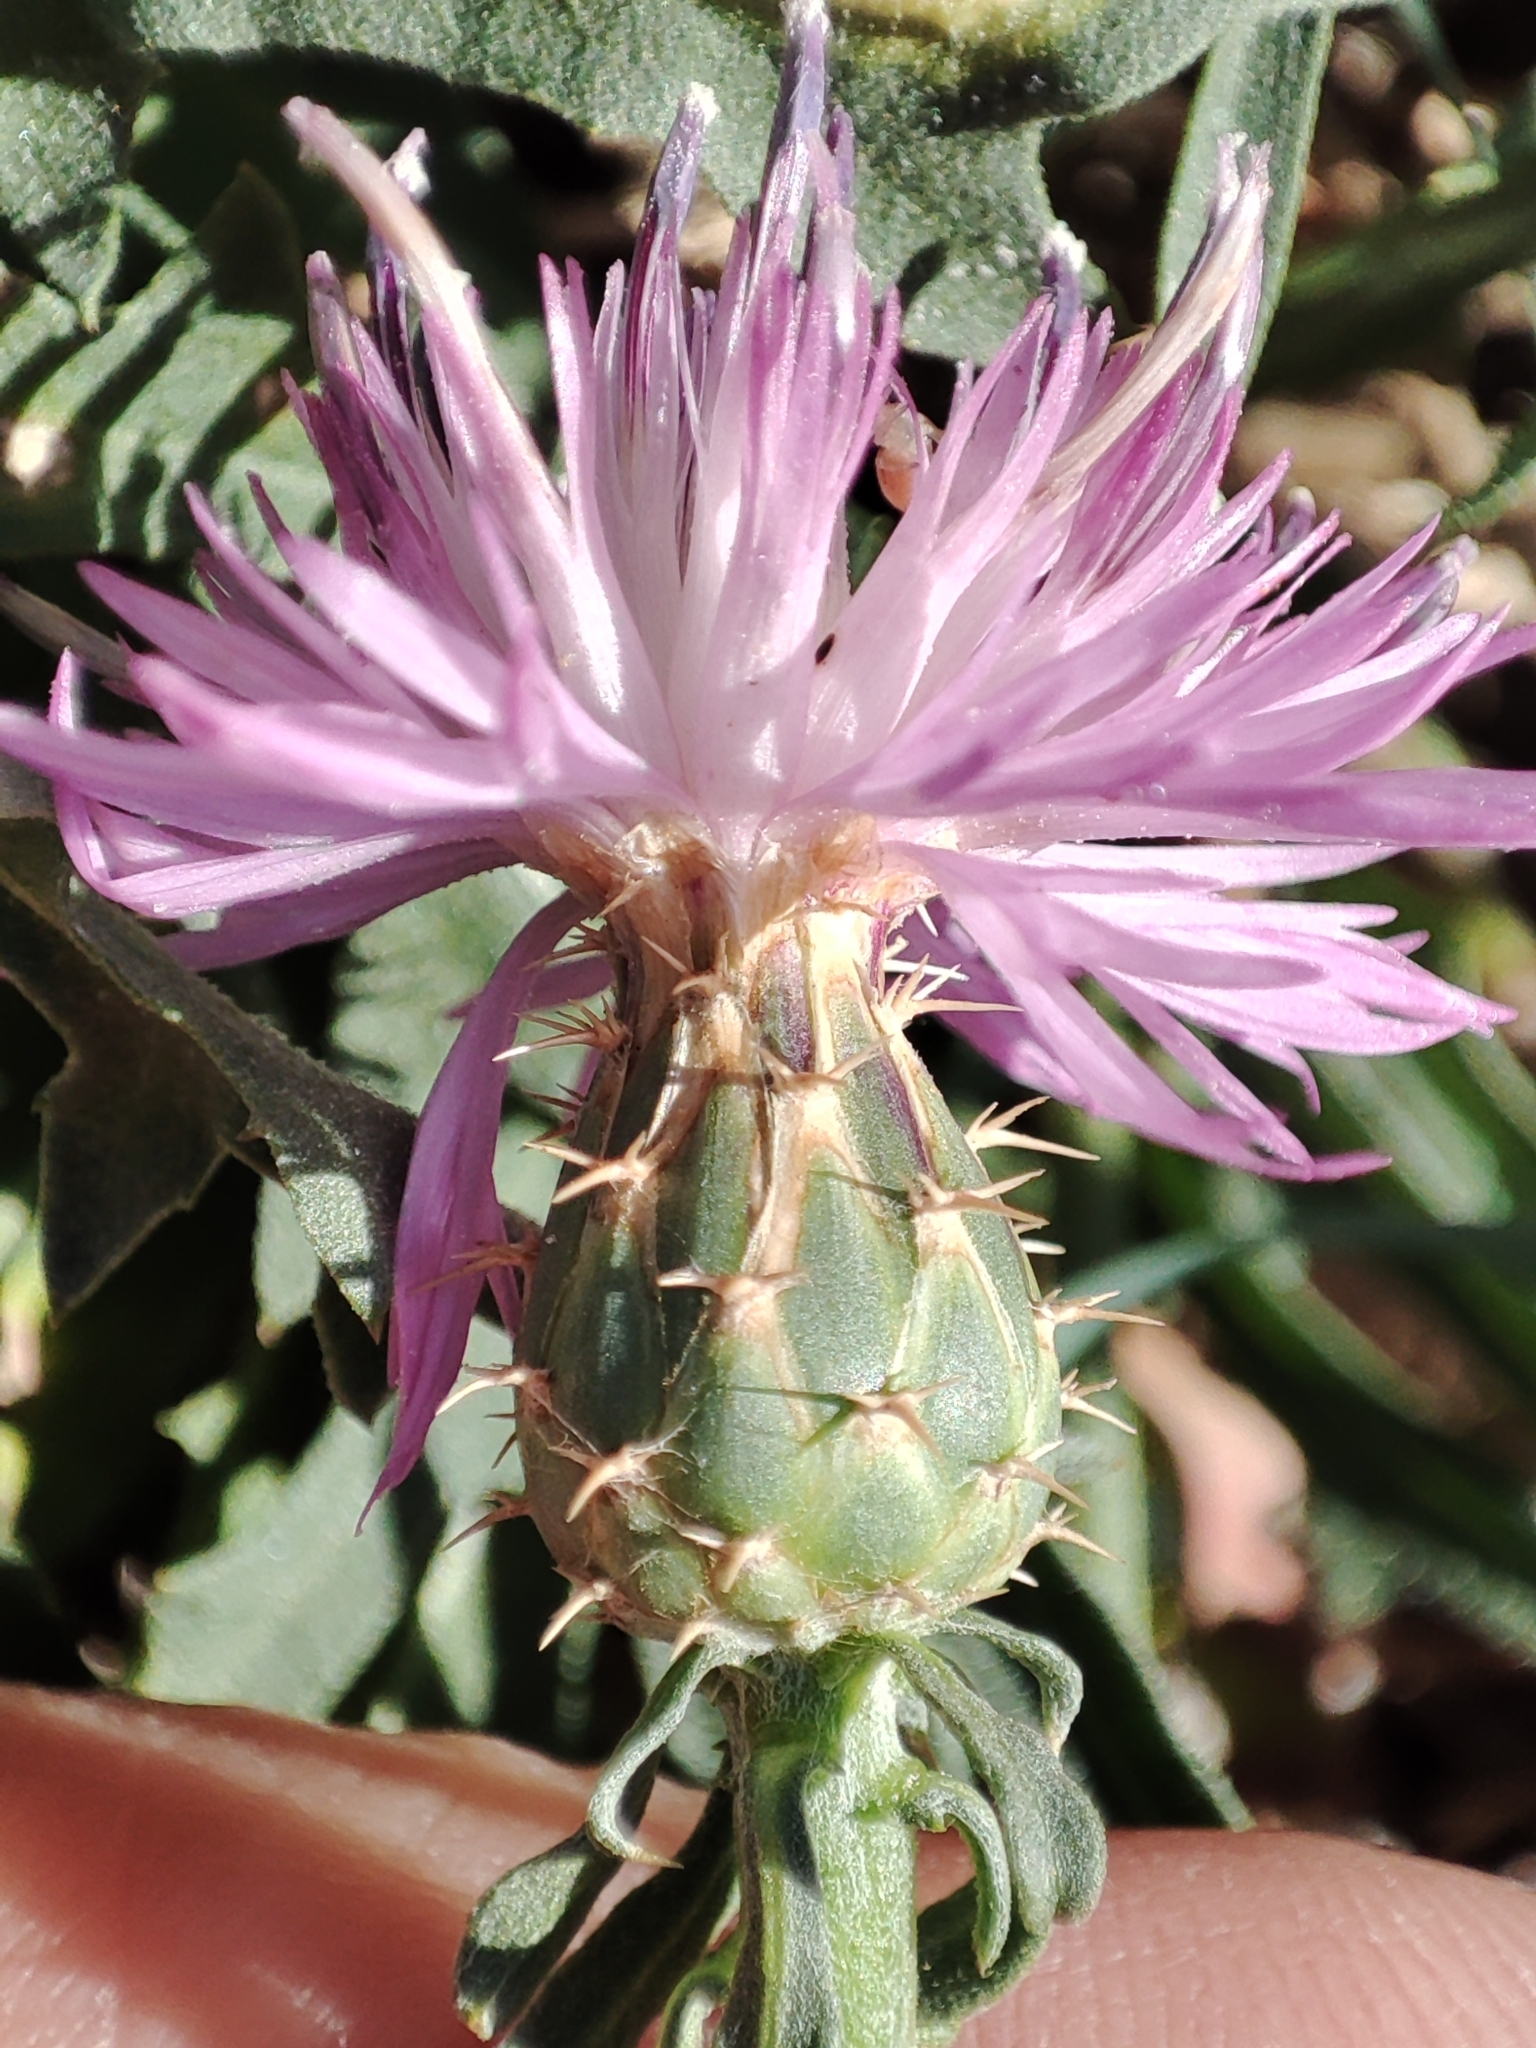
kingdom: Plantae
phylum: Tracheophyta
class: Magnoliopsida
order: Asterales
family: Asteraceae
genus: Centaurea
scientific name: Centaurea aspera
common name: Rough star-thistle
